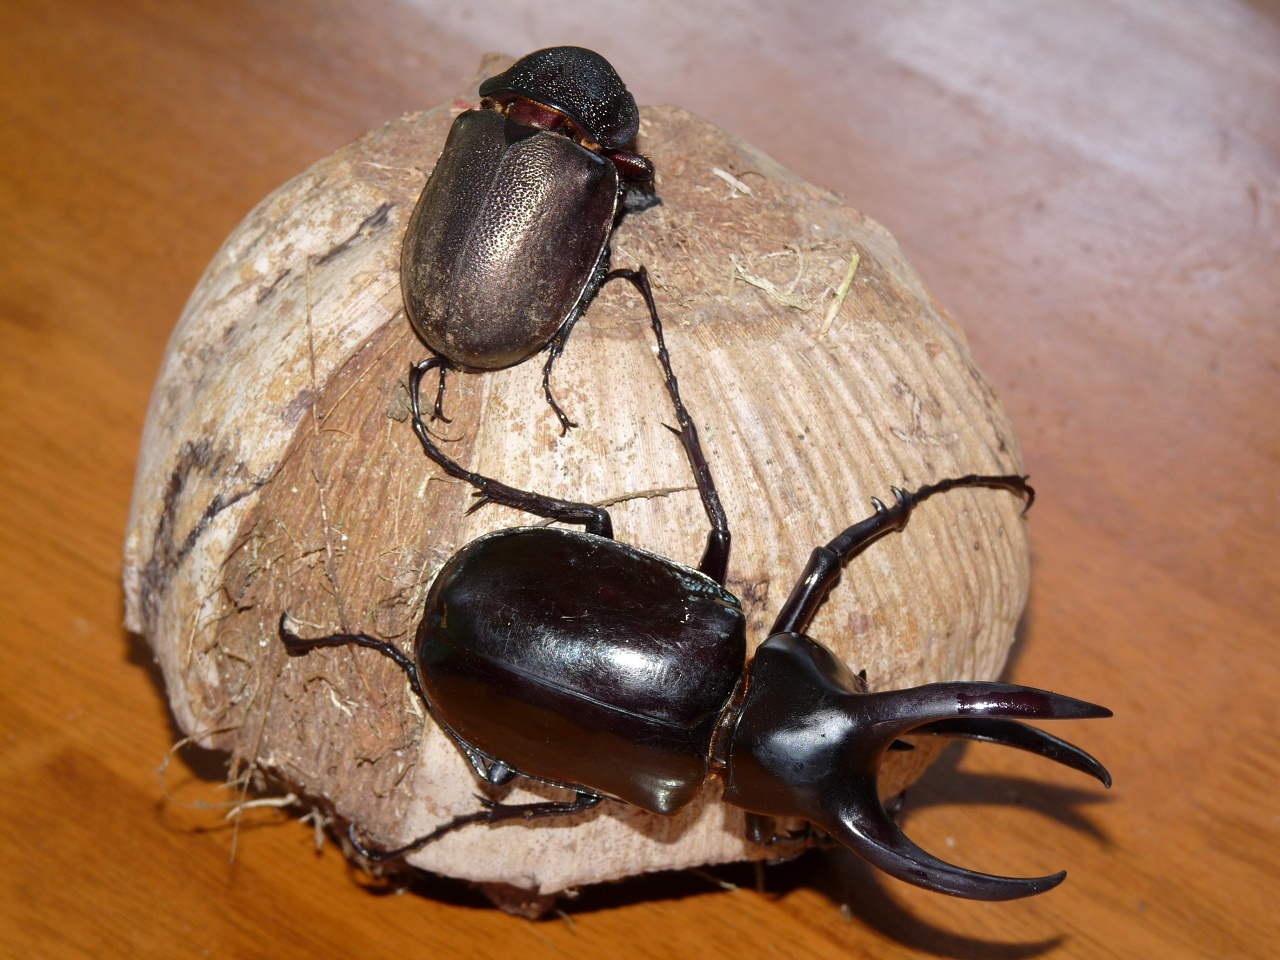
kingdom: Animalia
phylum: Arthropoda
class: Insecta
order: Coleoptera
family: Scarabaeidae
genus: Chalcosoma
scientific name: Chalcosoma moellenkampi
